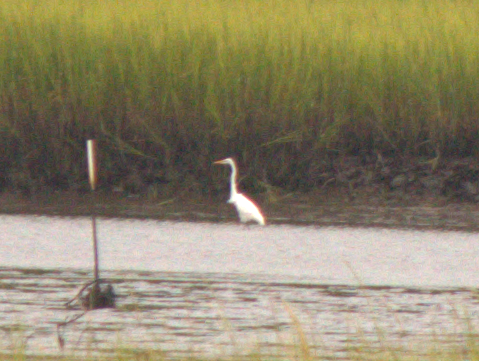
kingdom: Animalia
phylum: Chordata
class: Aves
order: Pelecaniformes
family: Ardeidae
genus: Ardea
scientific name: Ardea alba
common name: Great egret
